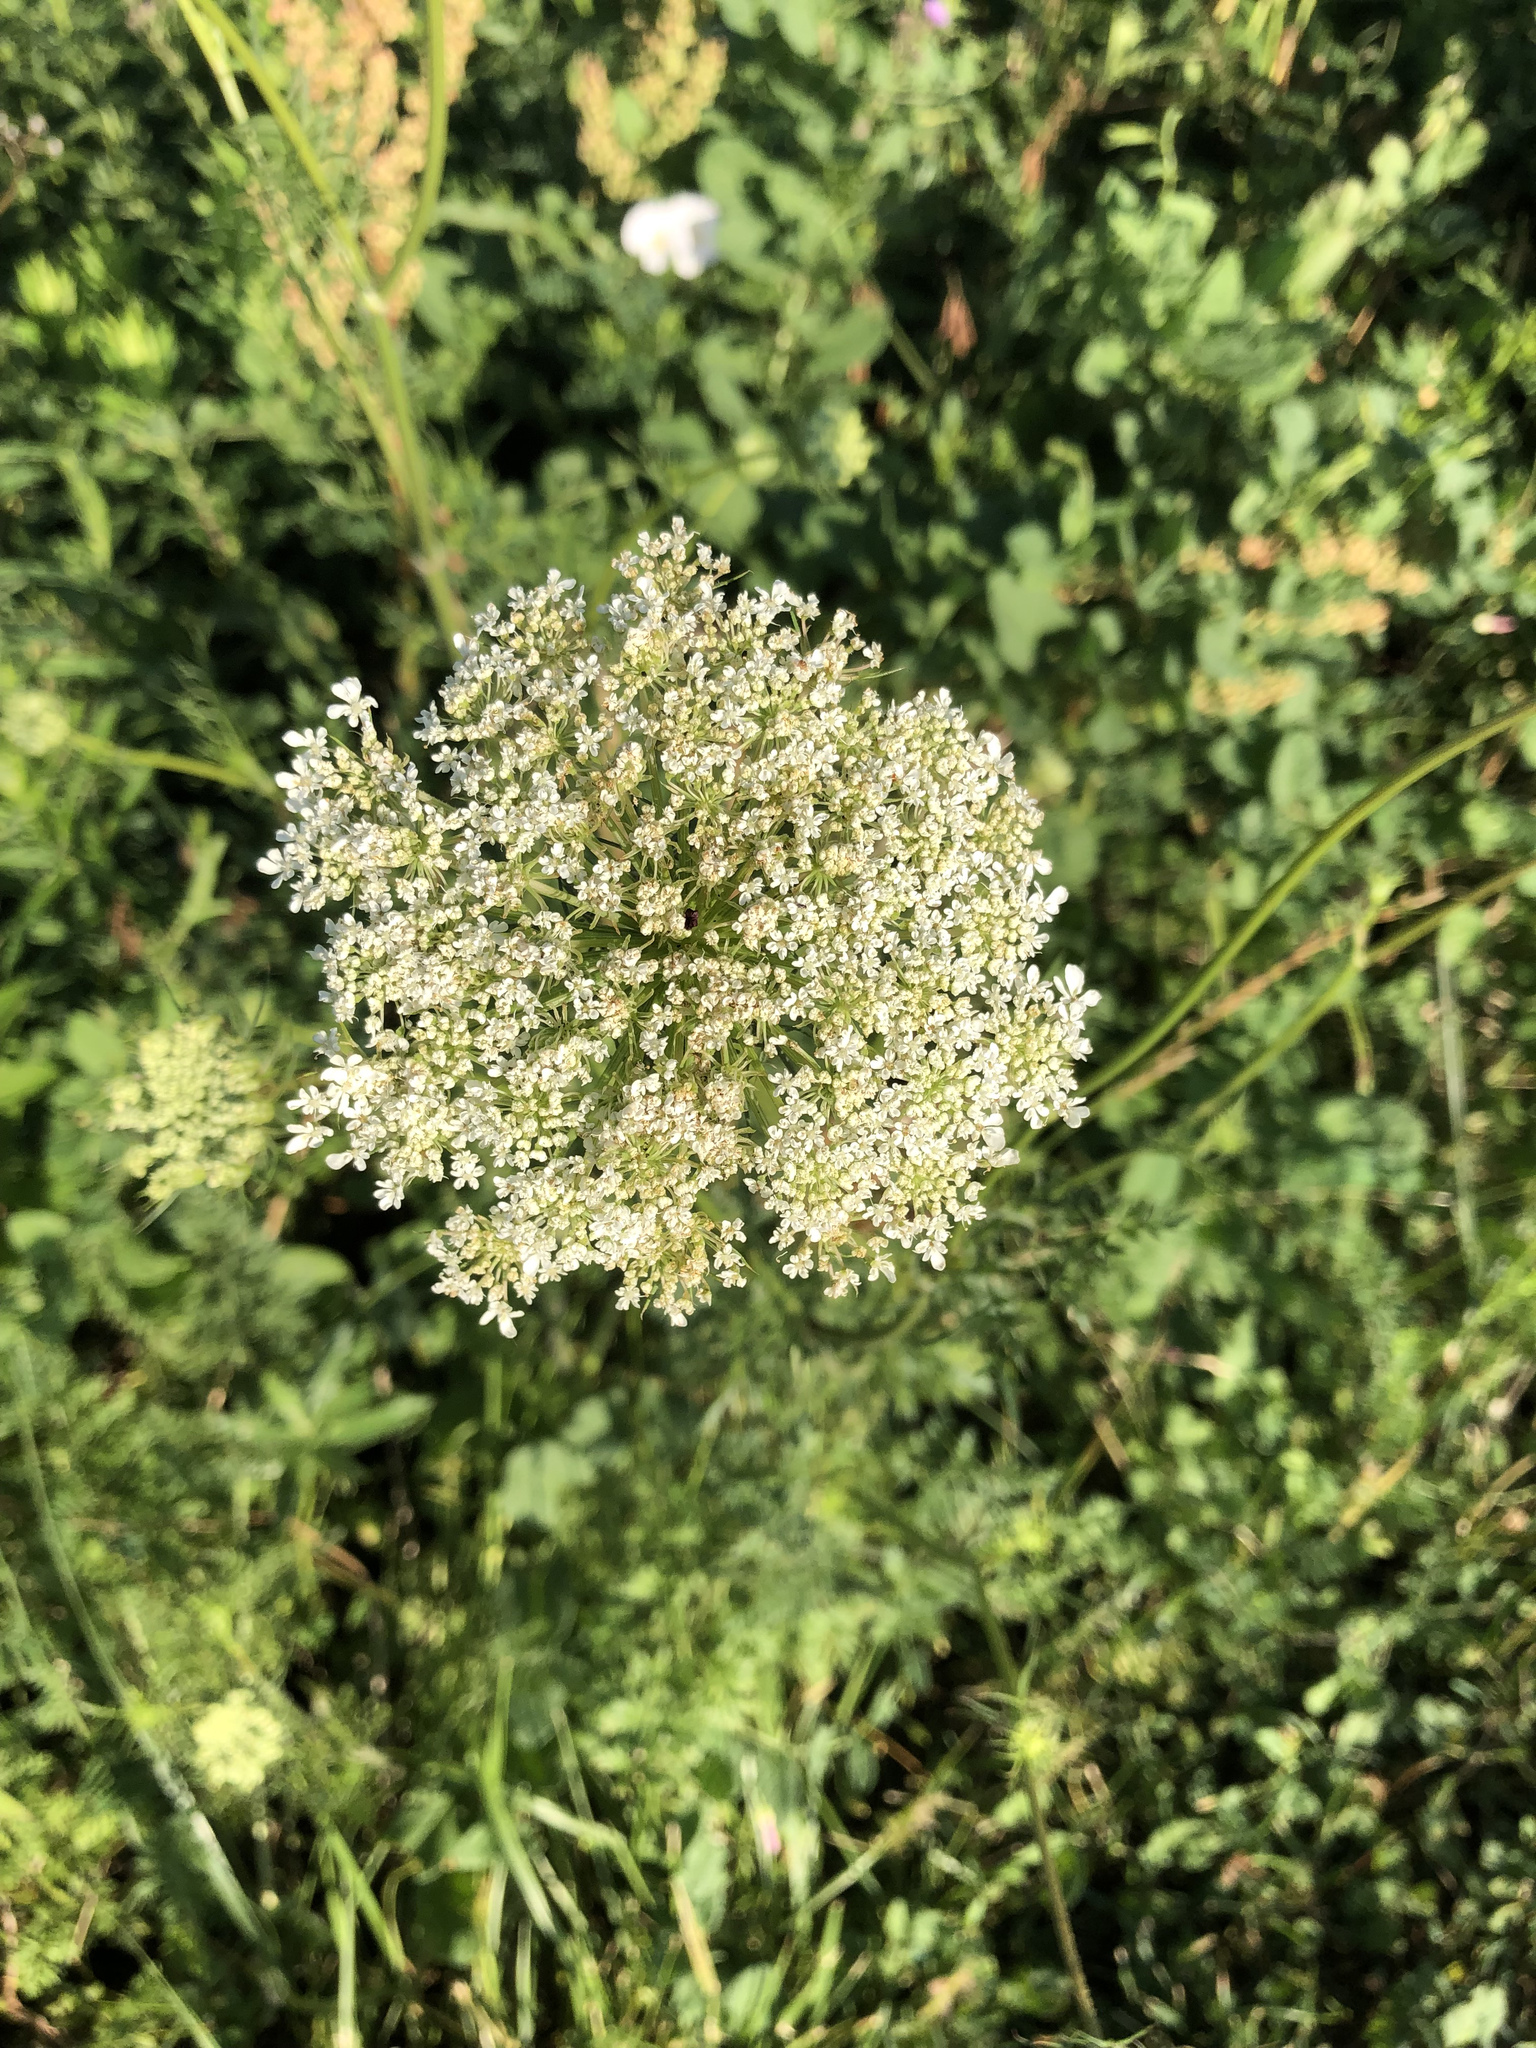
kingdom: Plantae
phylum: Tracheophyta
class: Magnoliopsida
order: Apiales
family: Apiaceae
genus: Daucus
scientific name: Daucus carota
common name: Wild carrot
